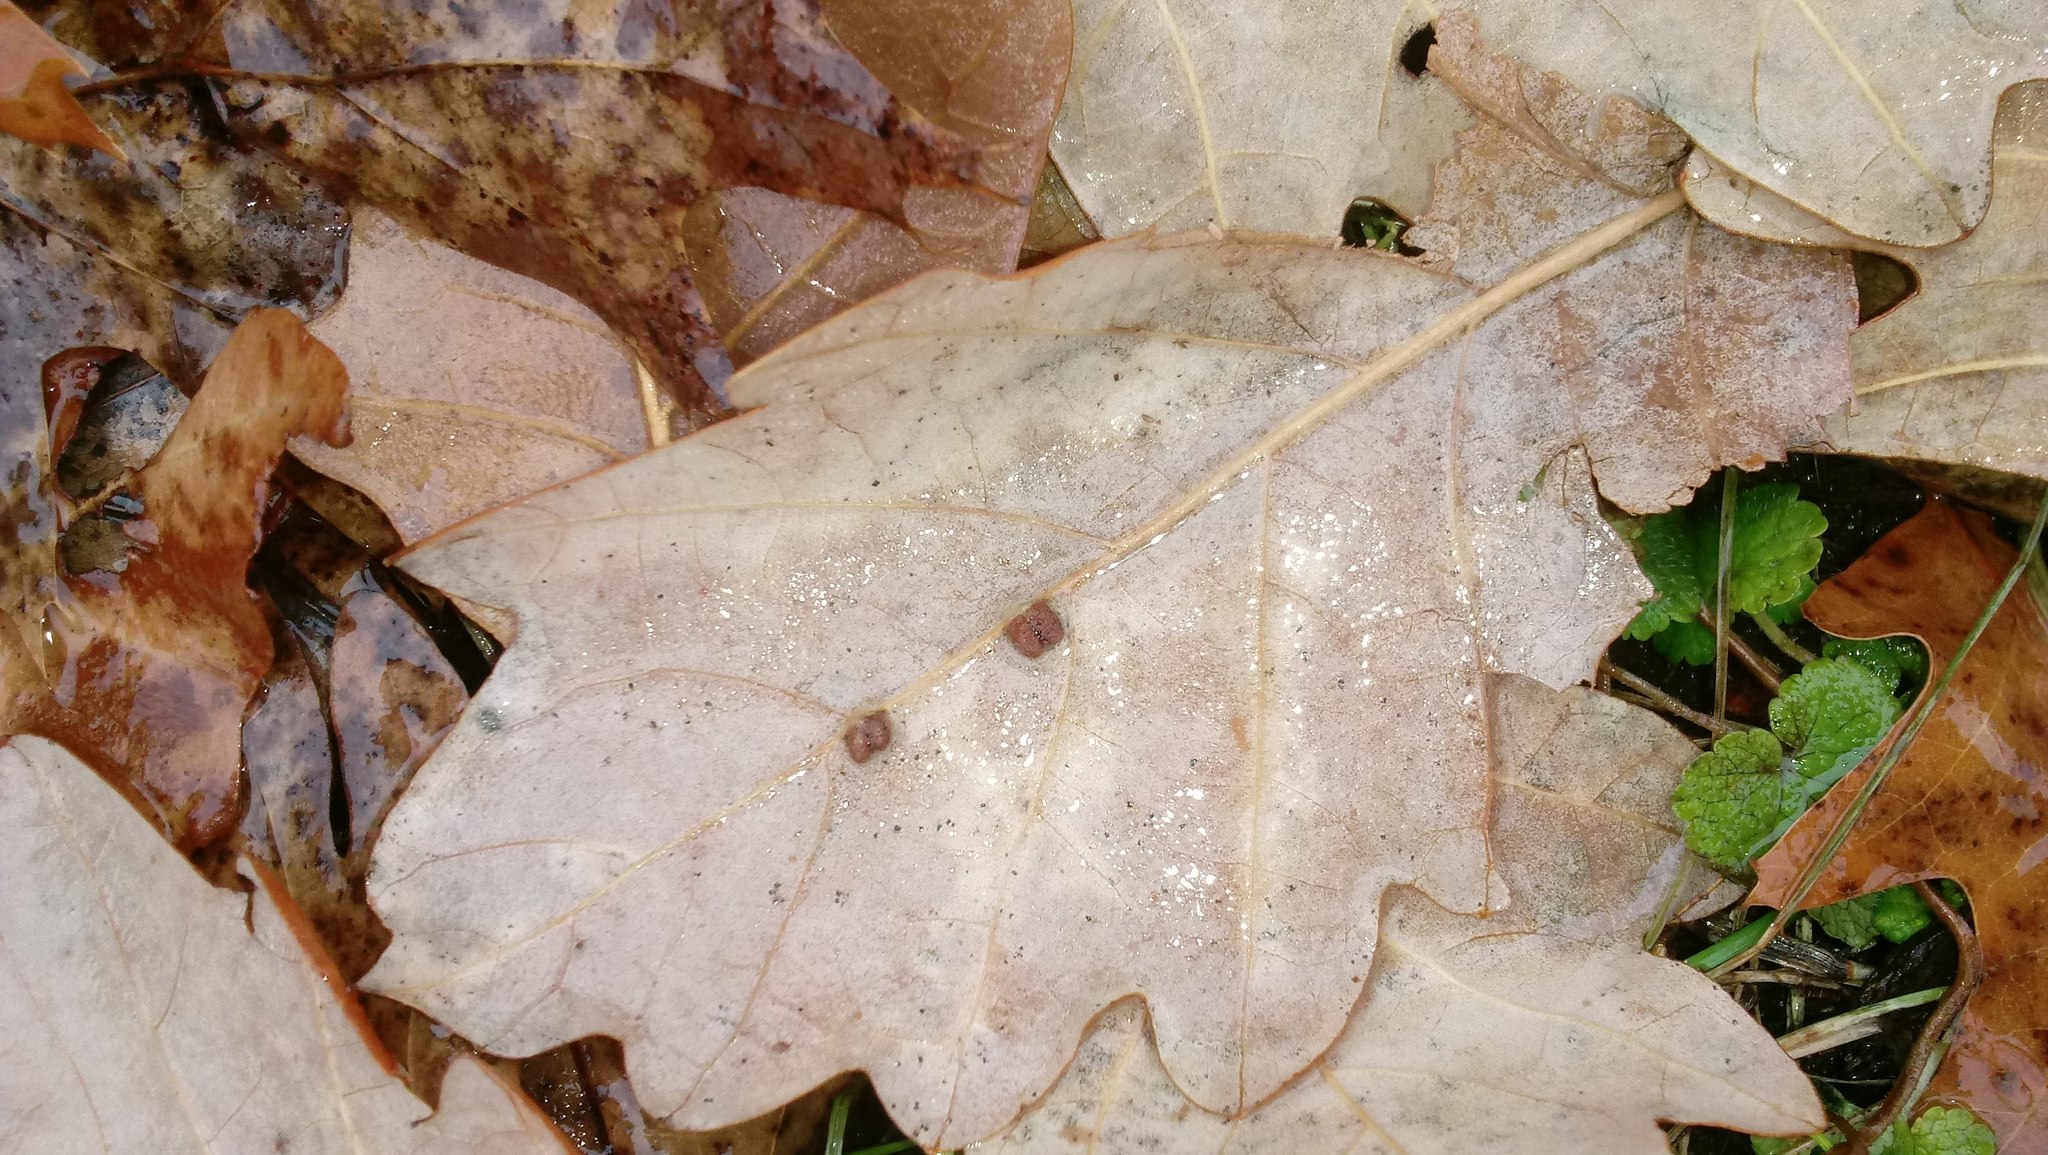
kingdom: Animalia
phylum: Arthropoda
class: Insecta
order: Hymenoptera
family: Cynipidae
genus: Andricus
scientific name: Andricus Druon ignotum
